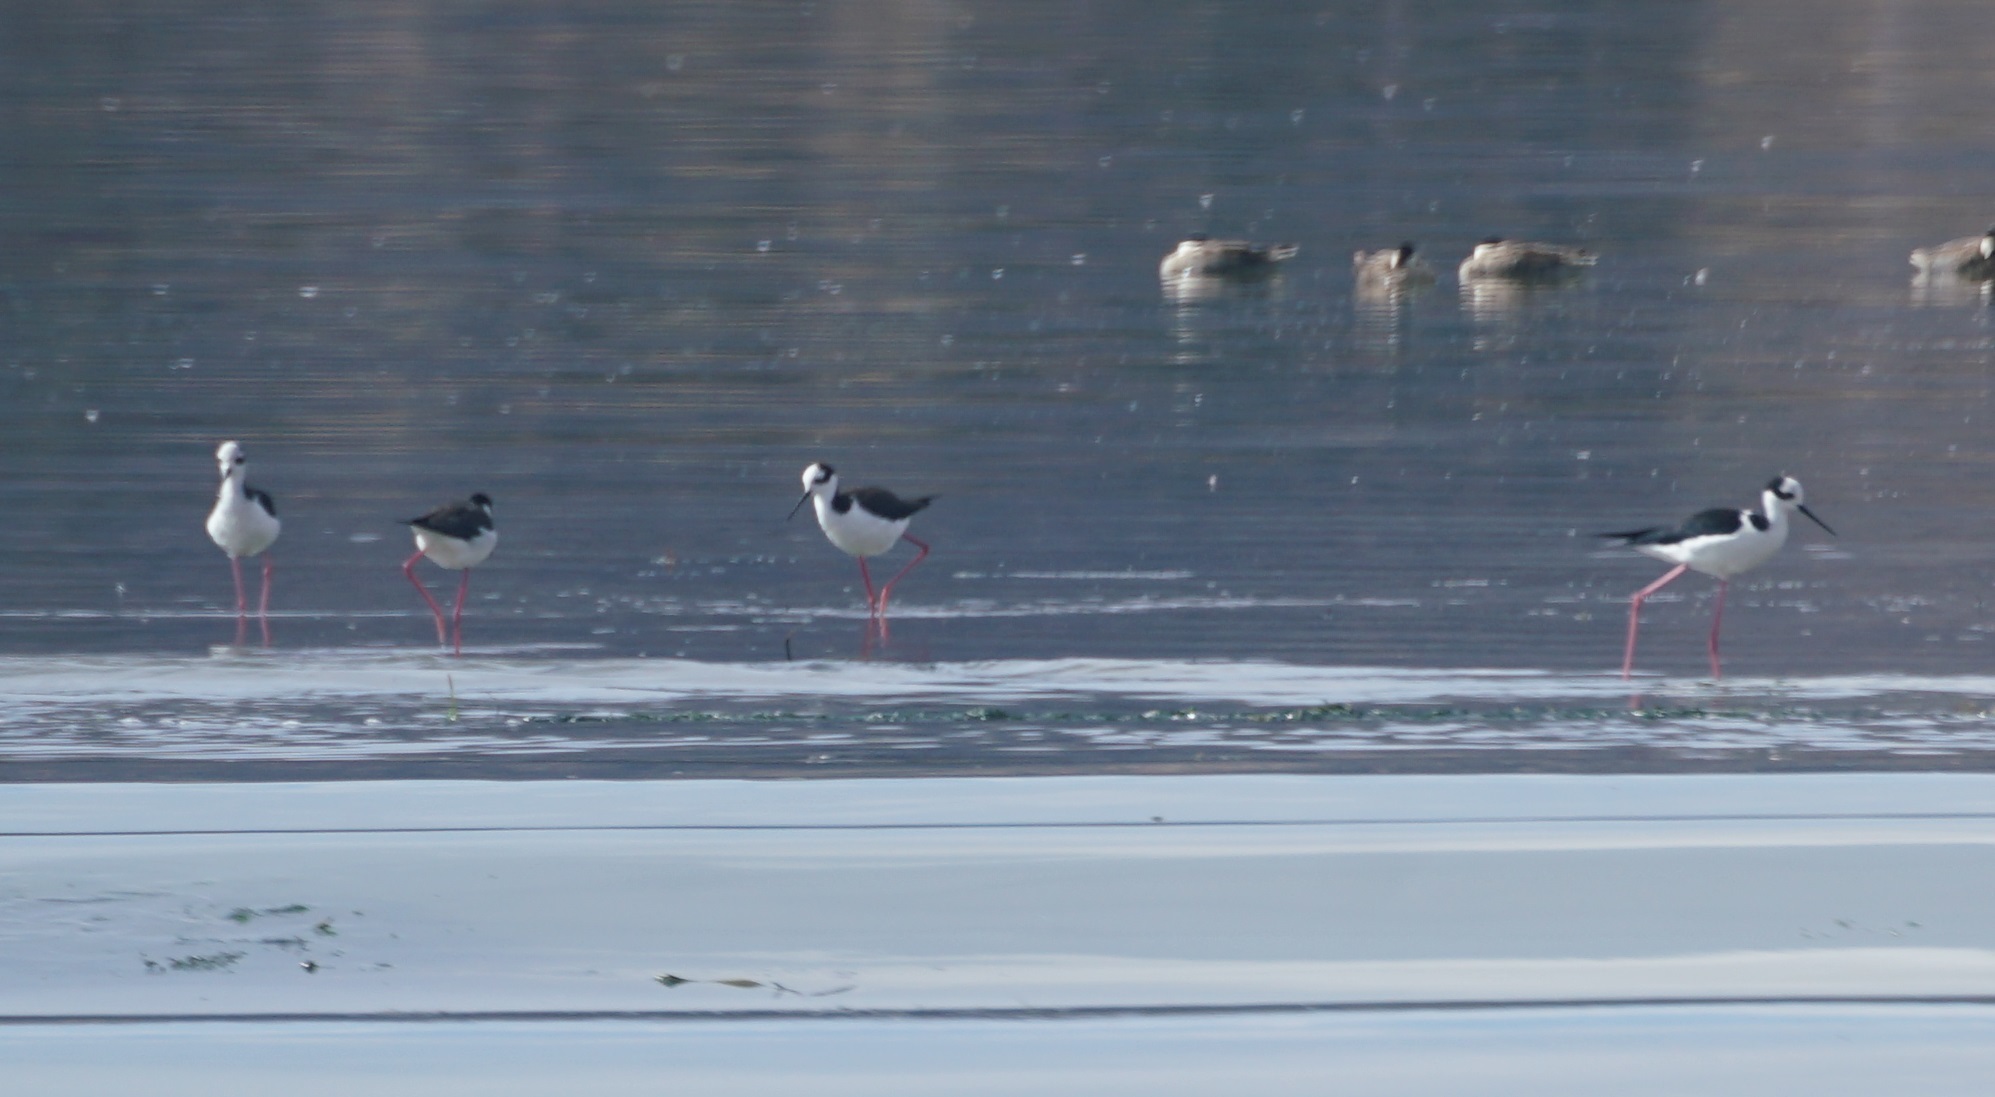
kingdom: Animalia
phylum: Chordata
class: Aves
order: Charadriiformes
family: Recurvirostridae
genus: Himantopus
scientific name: Himantopus mexicanus
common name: Black-necked stilt
